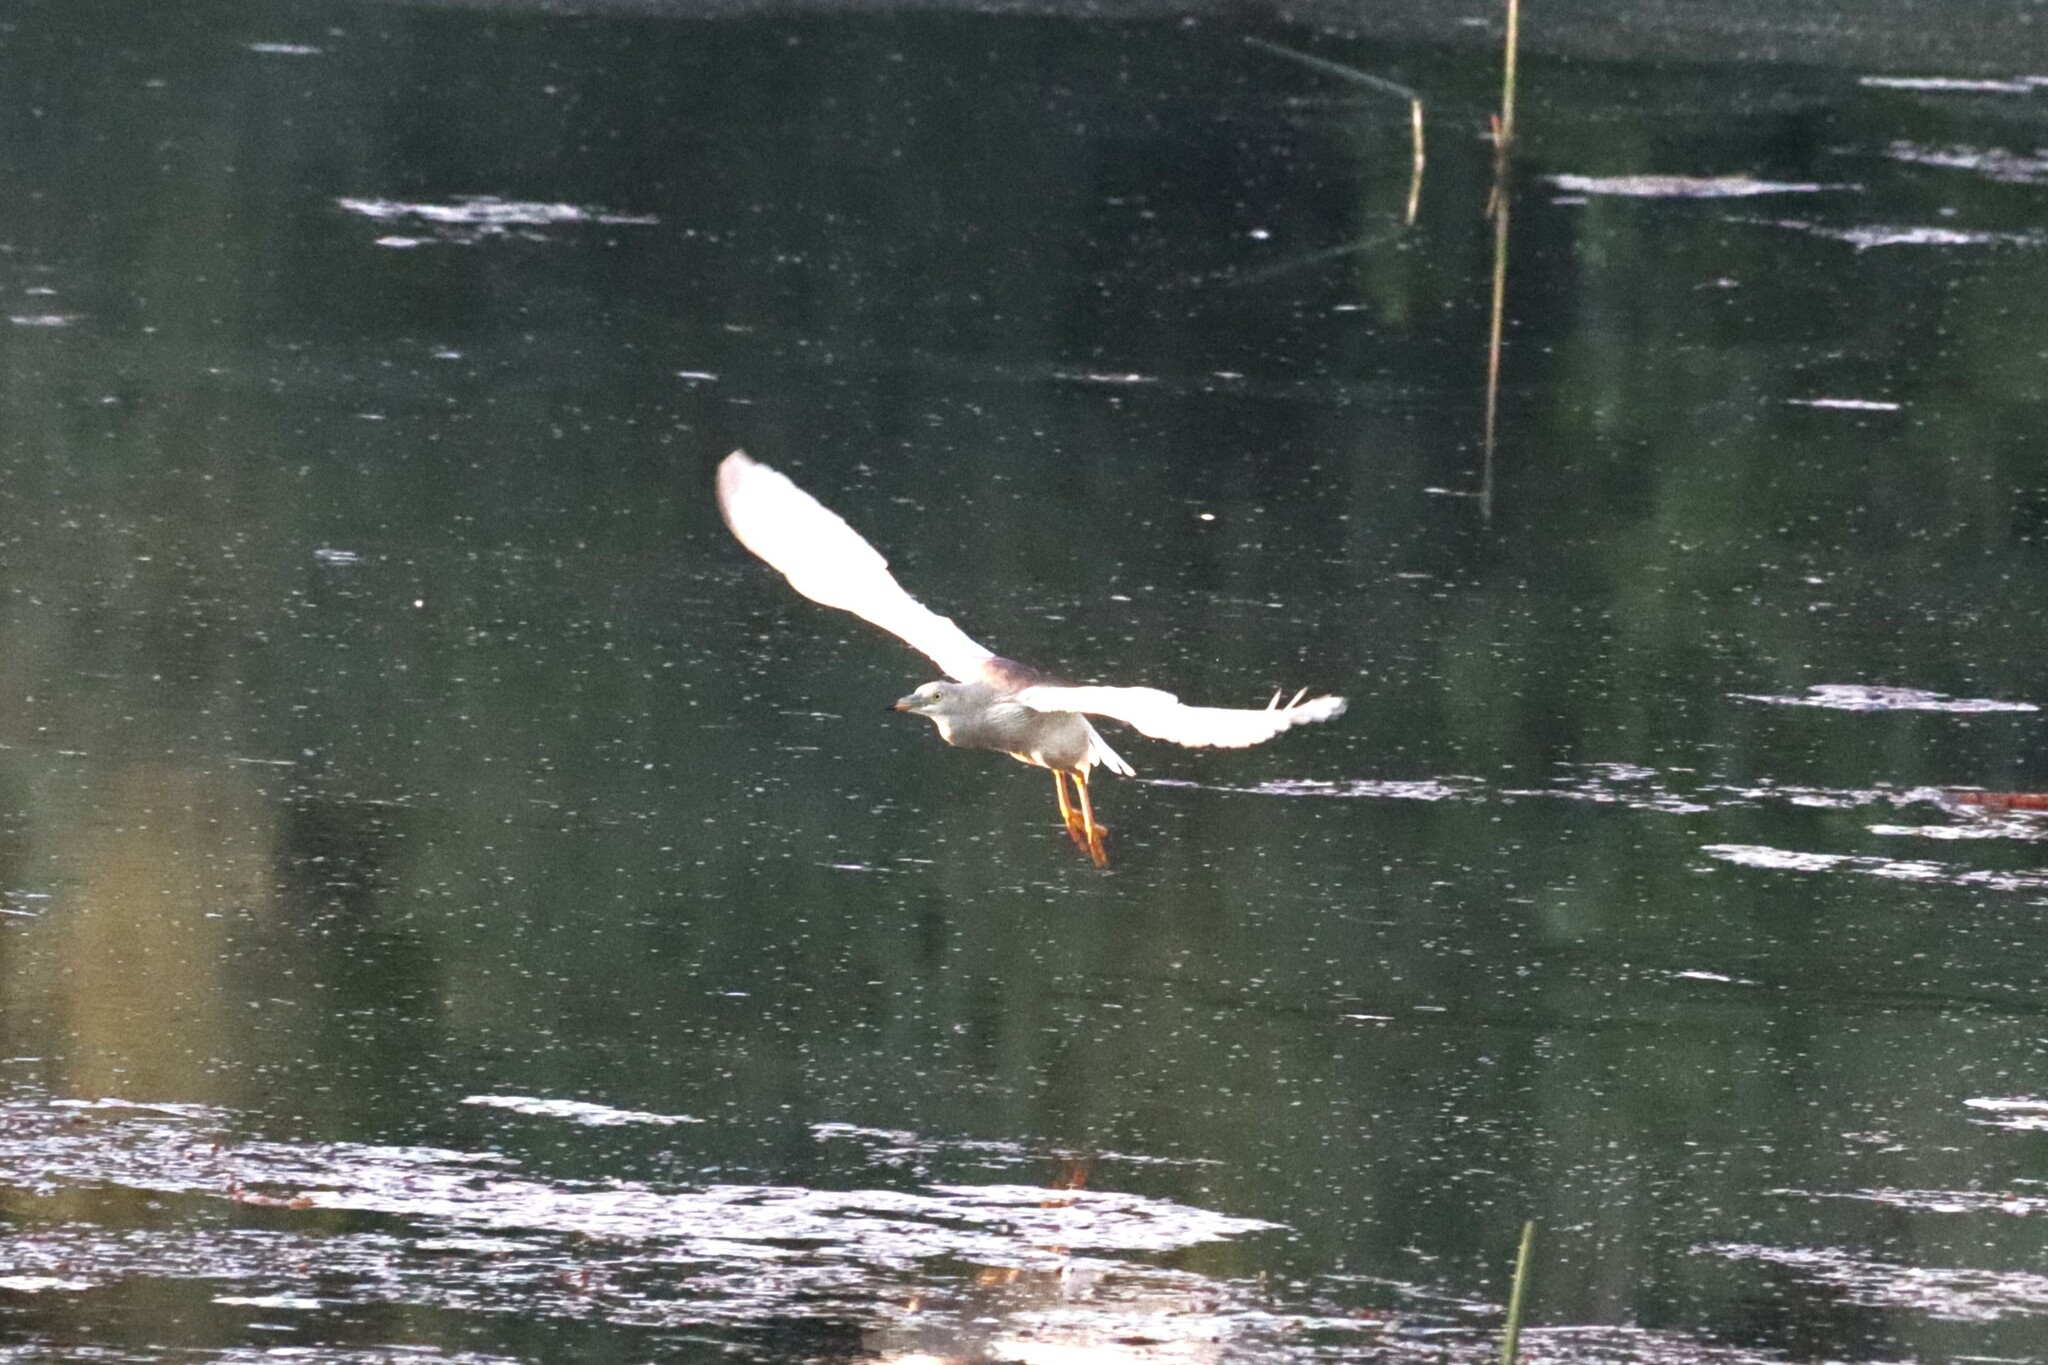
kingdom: Animalia
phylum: Chordata
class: Aves
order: Pelecaniformes
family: Ardeidae
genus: Ardeola
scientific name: Ardeola grayii
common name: Indian pond heron
